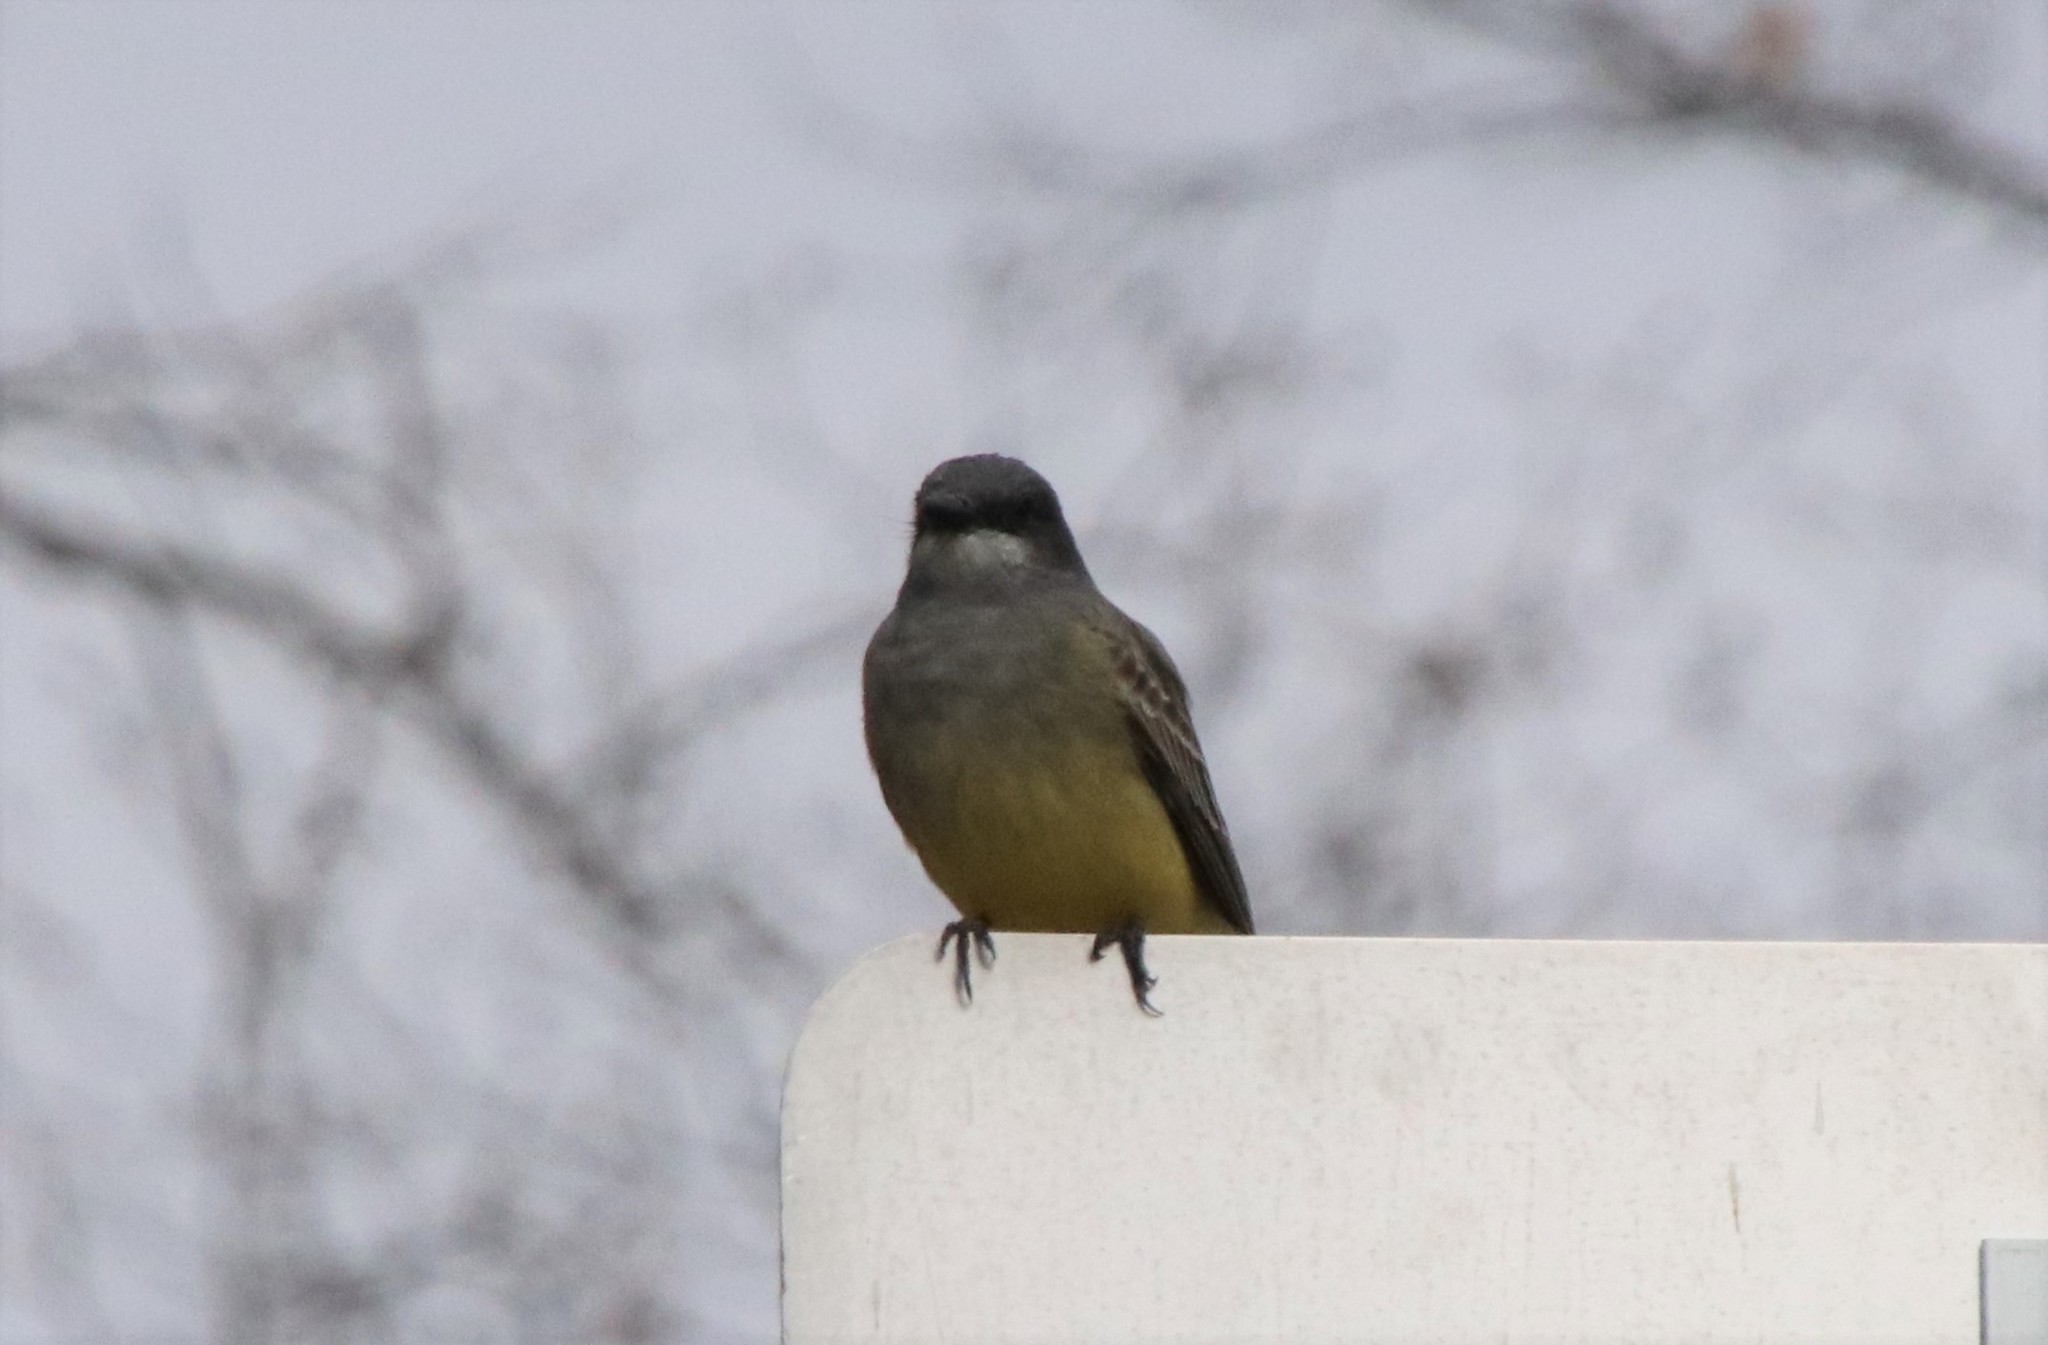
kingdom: Animalia
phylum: Chordata
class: Aves
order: Passeriformes
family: Tyrannidae
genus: Tyrannus
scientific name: Tyrannus vociferans
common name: Cassin's kingbird
